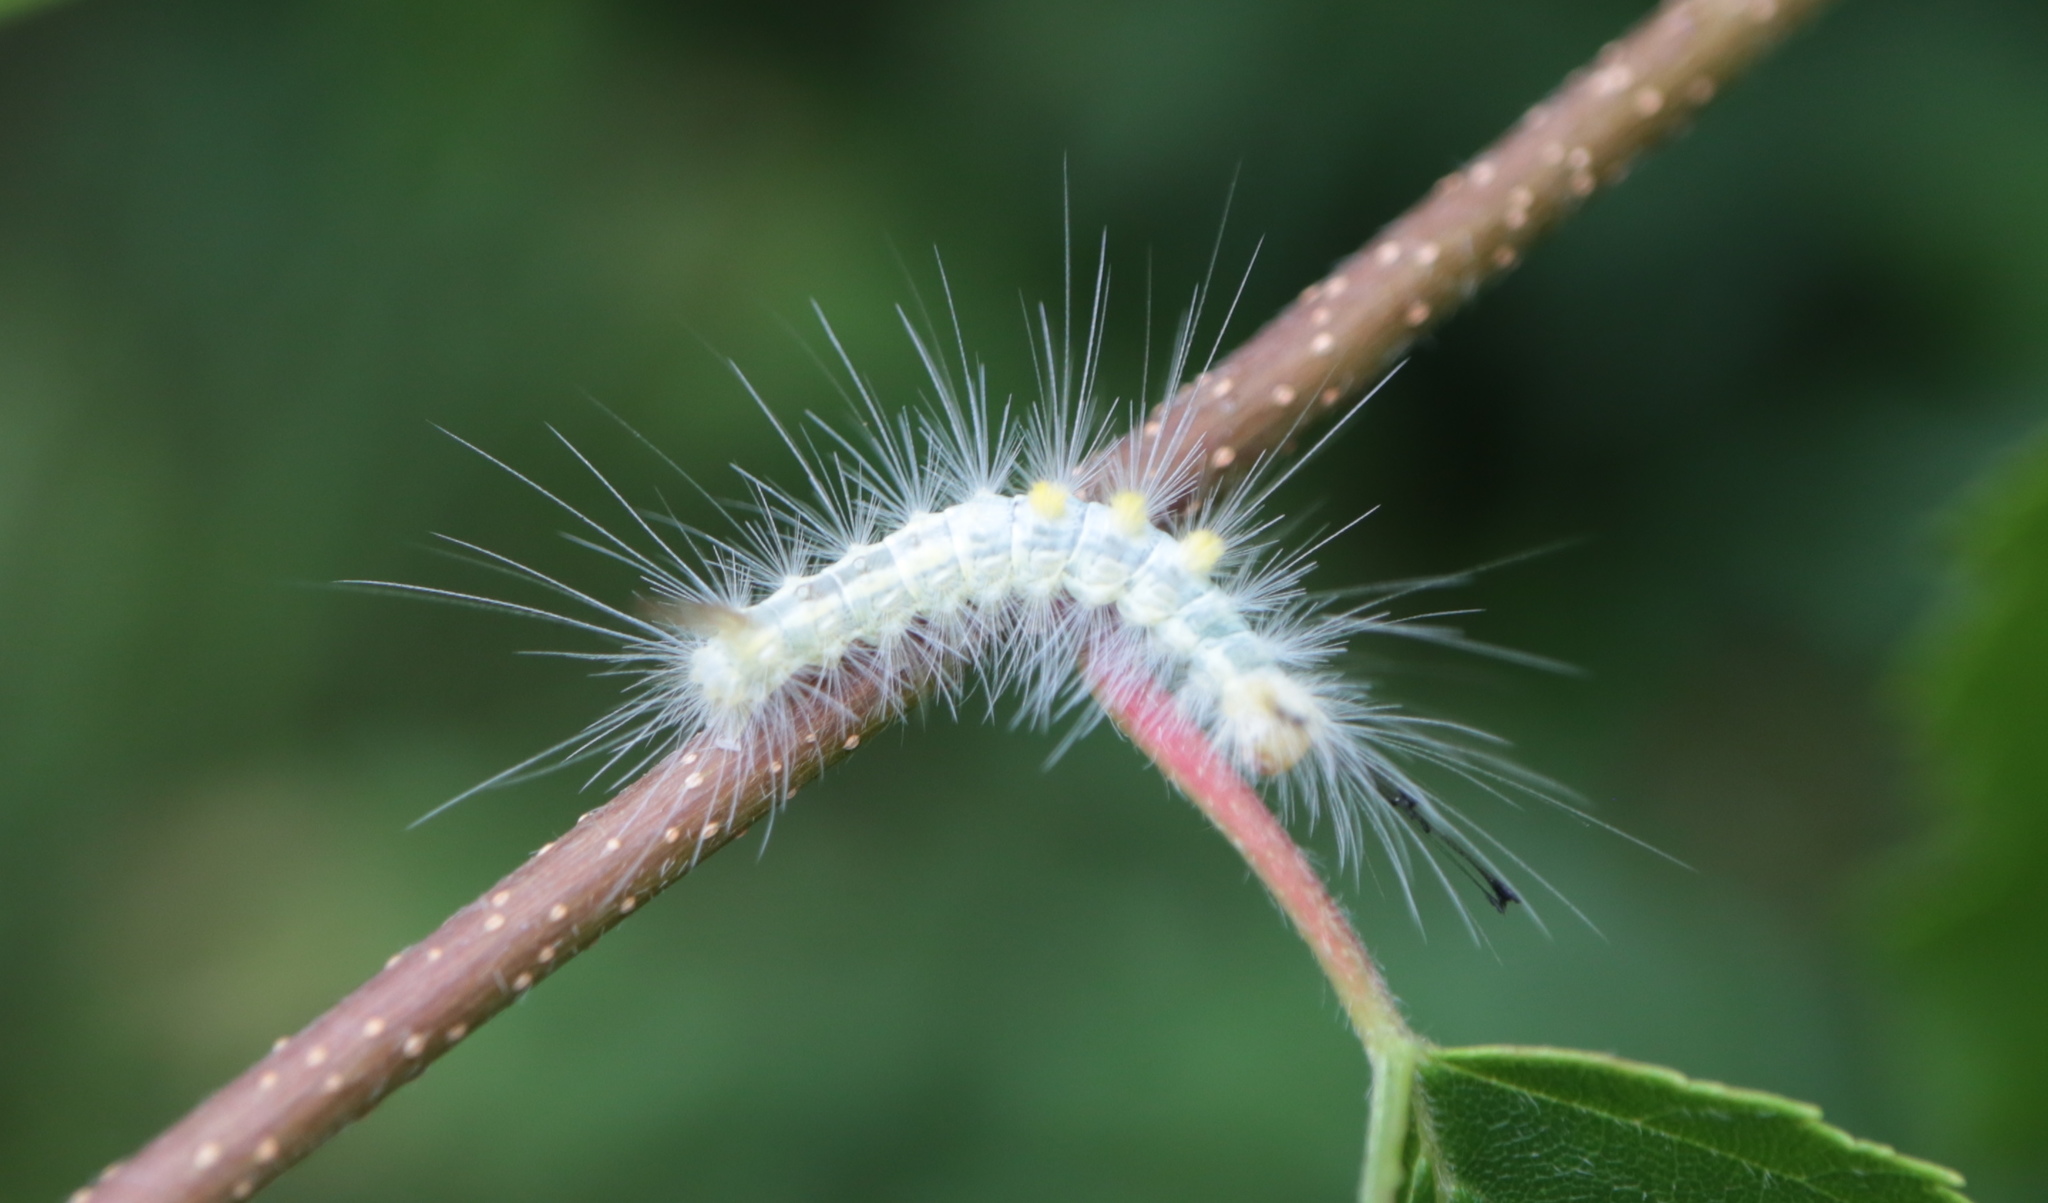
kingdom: Animalia
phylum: Arthropoda
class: Insecta
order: Lepidoptera
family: Erebidae
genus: Orgyia
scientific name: Orgyia definita
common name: Definite tussock moth
